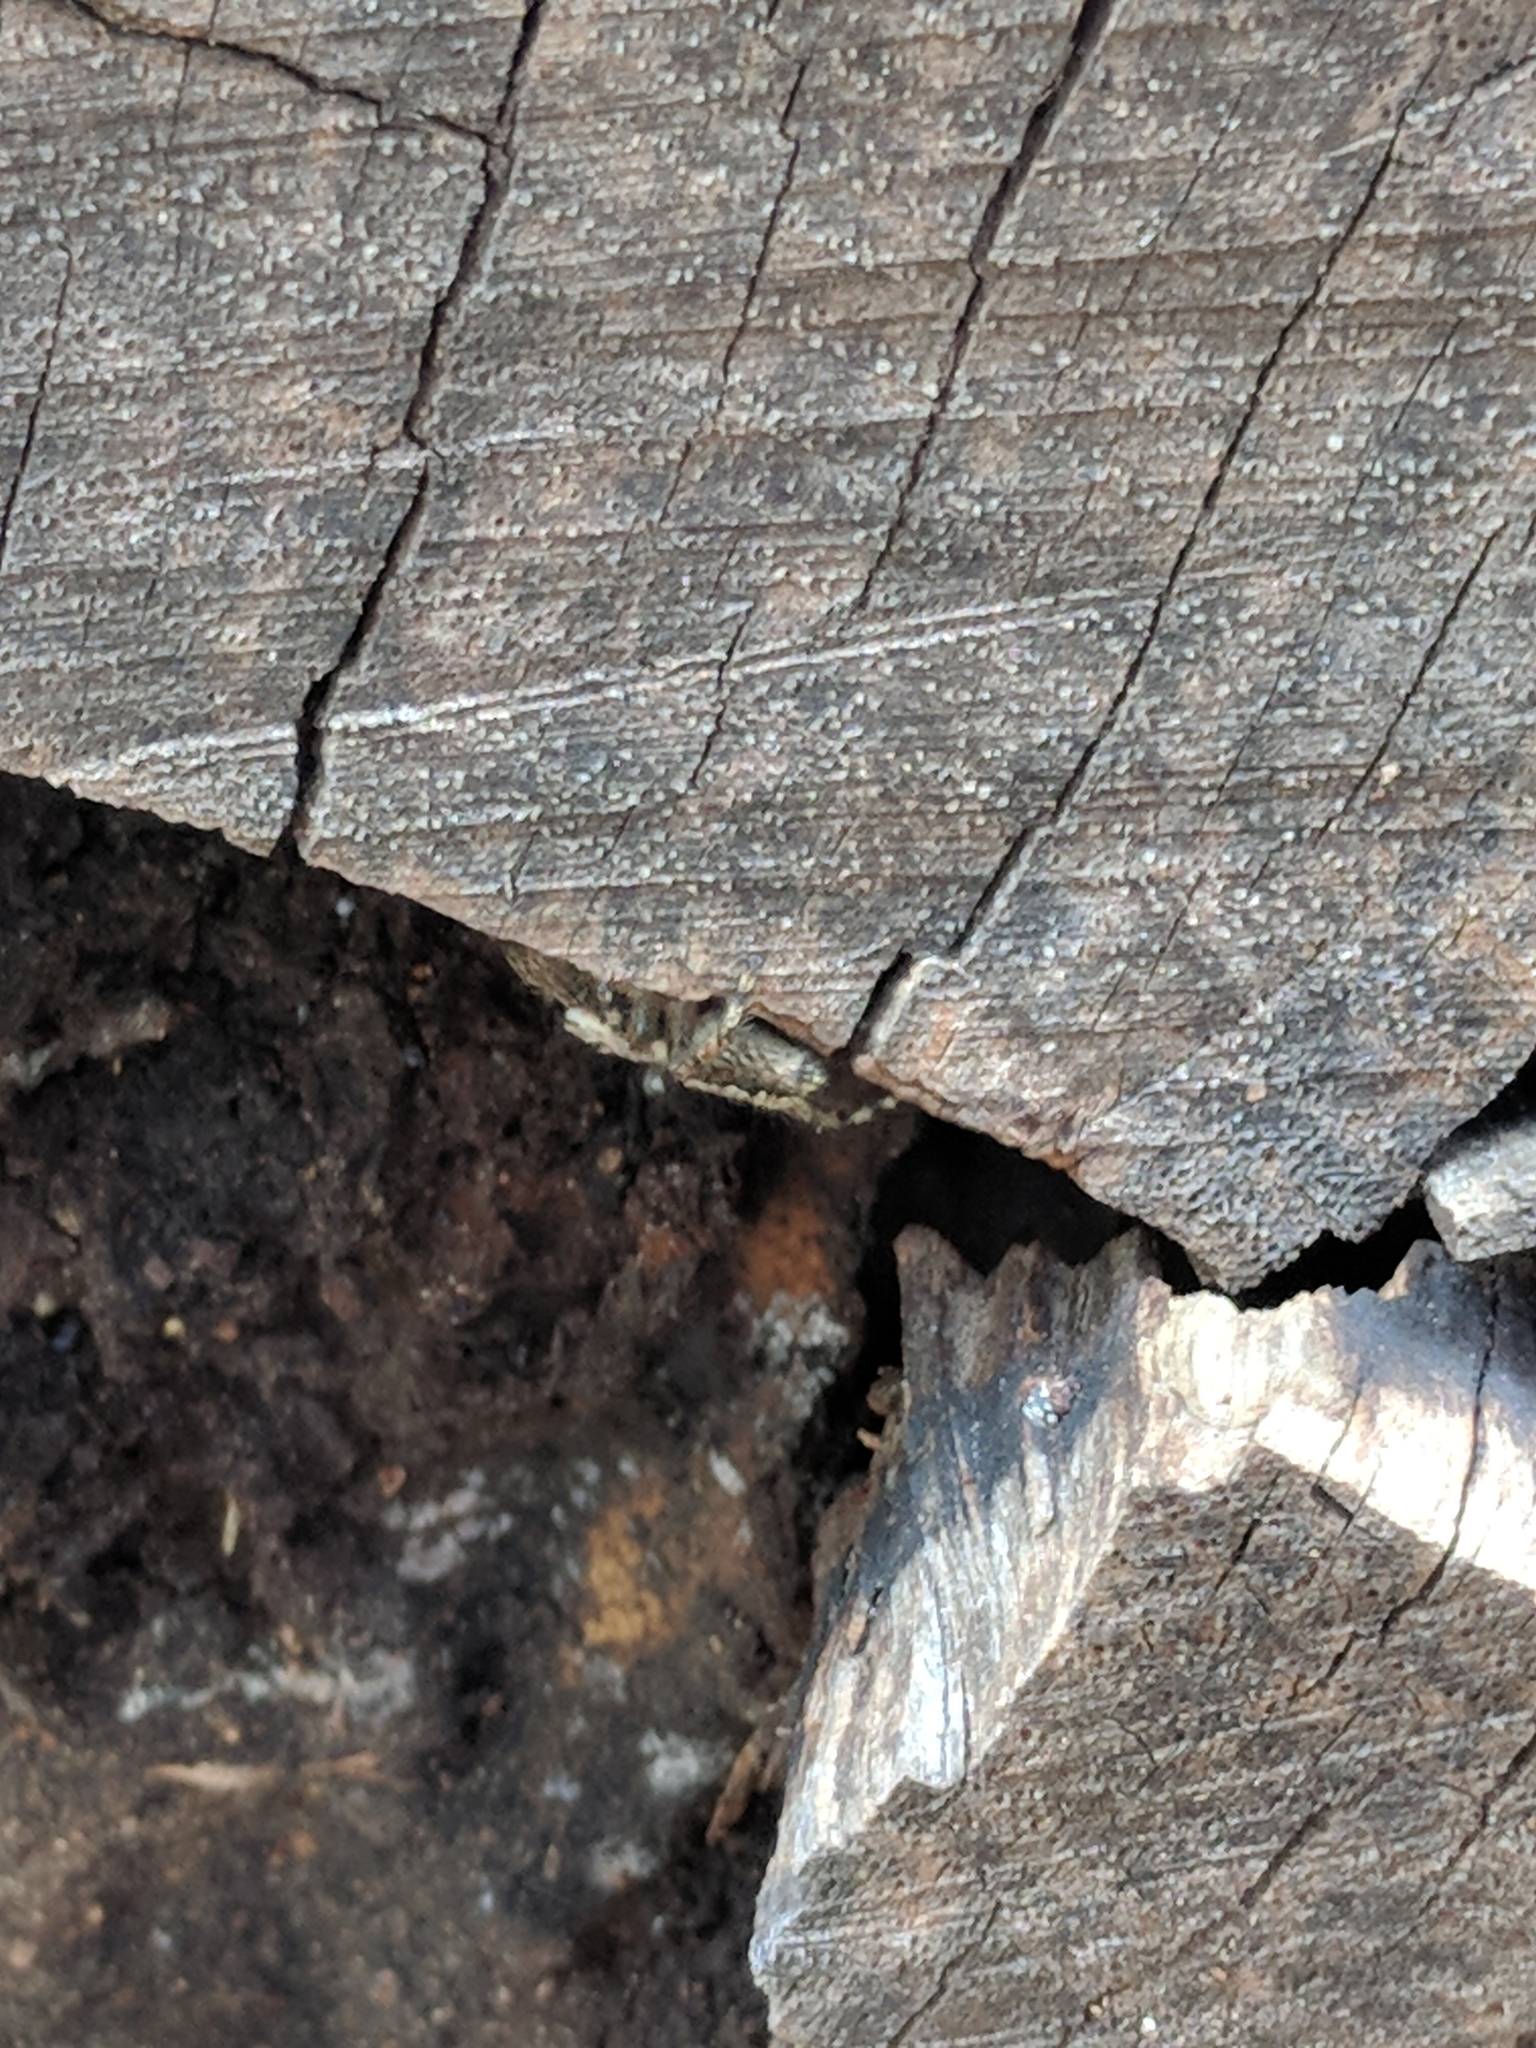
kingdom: Animalia
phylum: Arthropoda
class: Arachnida
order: Araneae
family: Salticidae
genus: Platycryptus
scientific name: Platycryptus undatus
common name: Tan jumping spider
